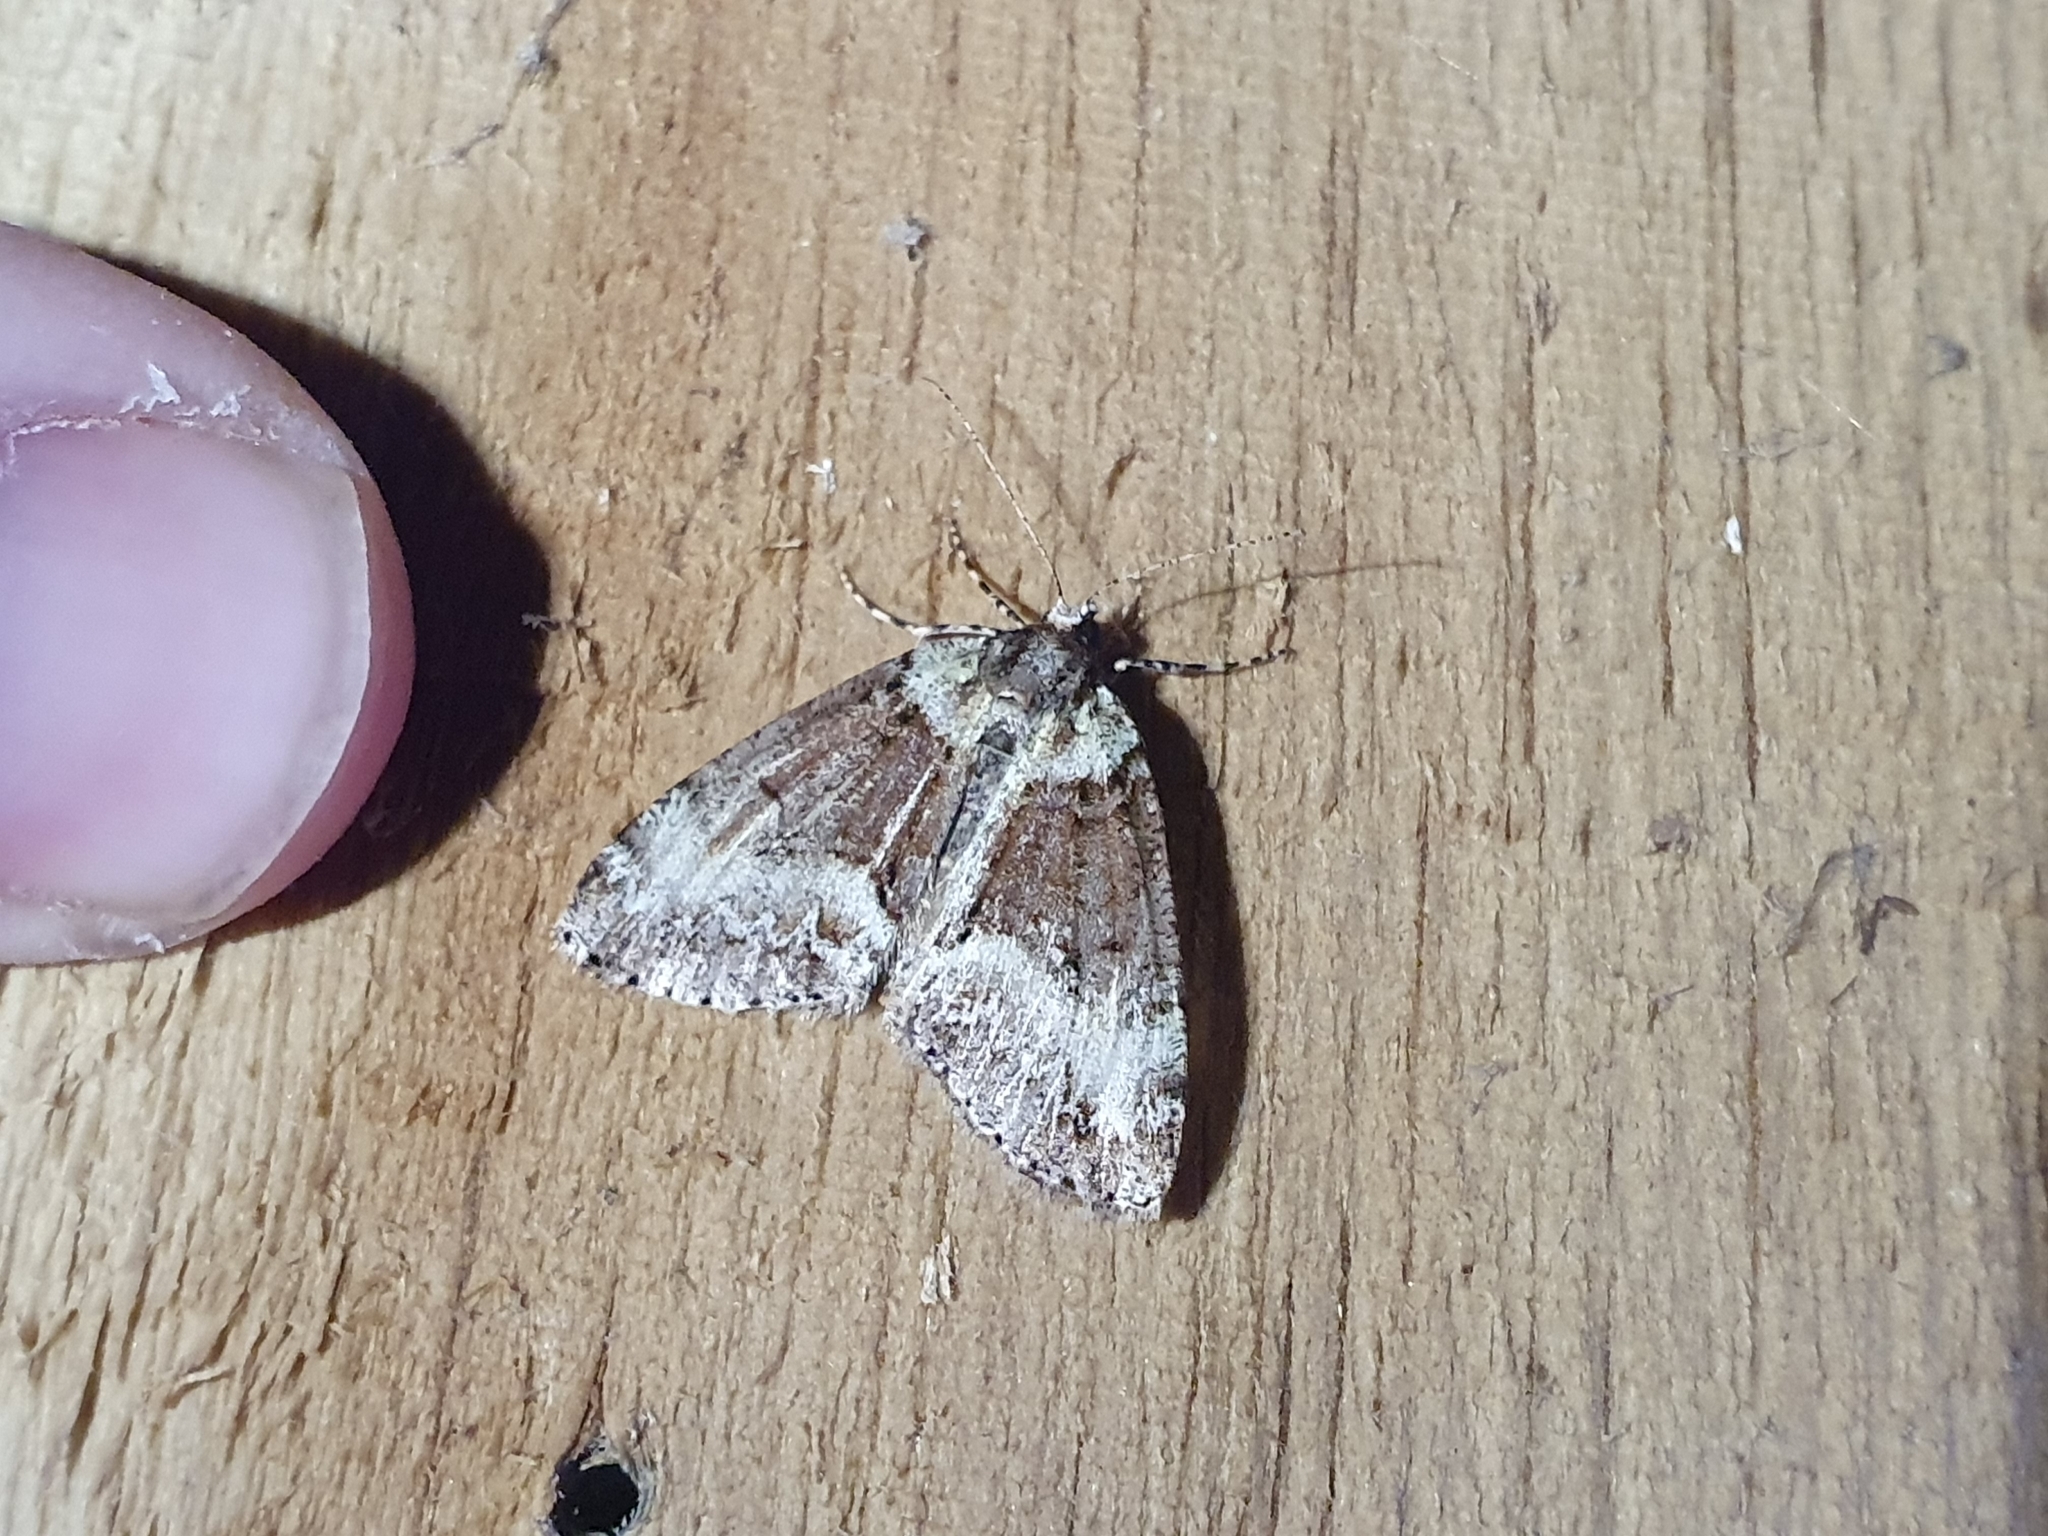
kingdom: Animalia
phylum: Arthropoda
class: Insecta
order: Lepidoptera
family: Geometridae
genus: Pseudocoremia
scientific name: Pseudocoremia suavis
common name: Common forest looper
